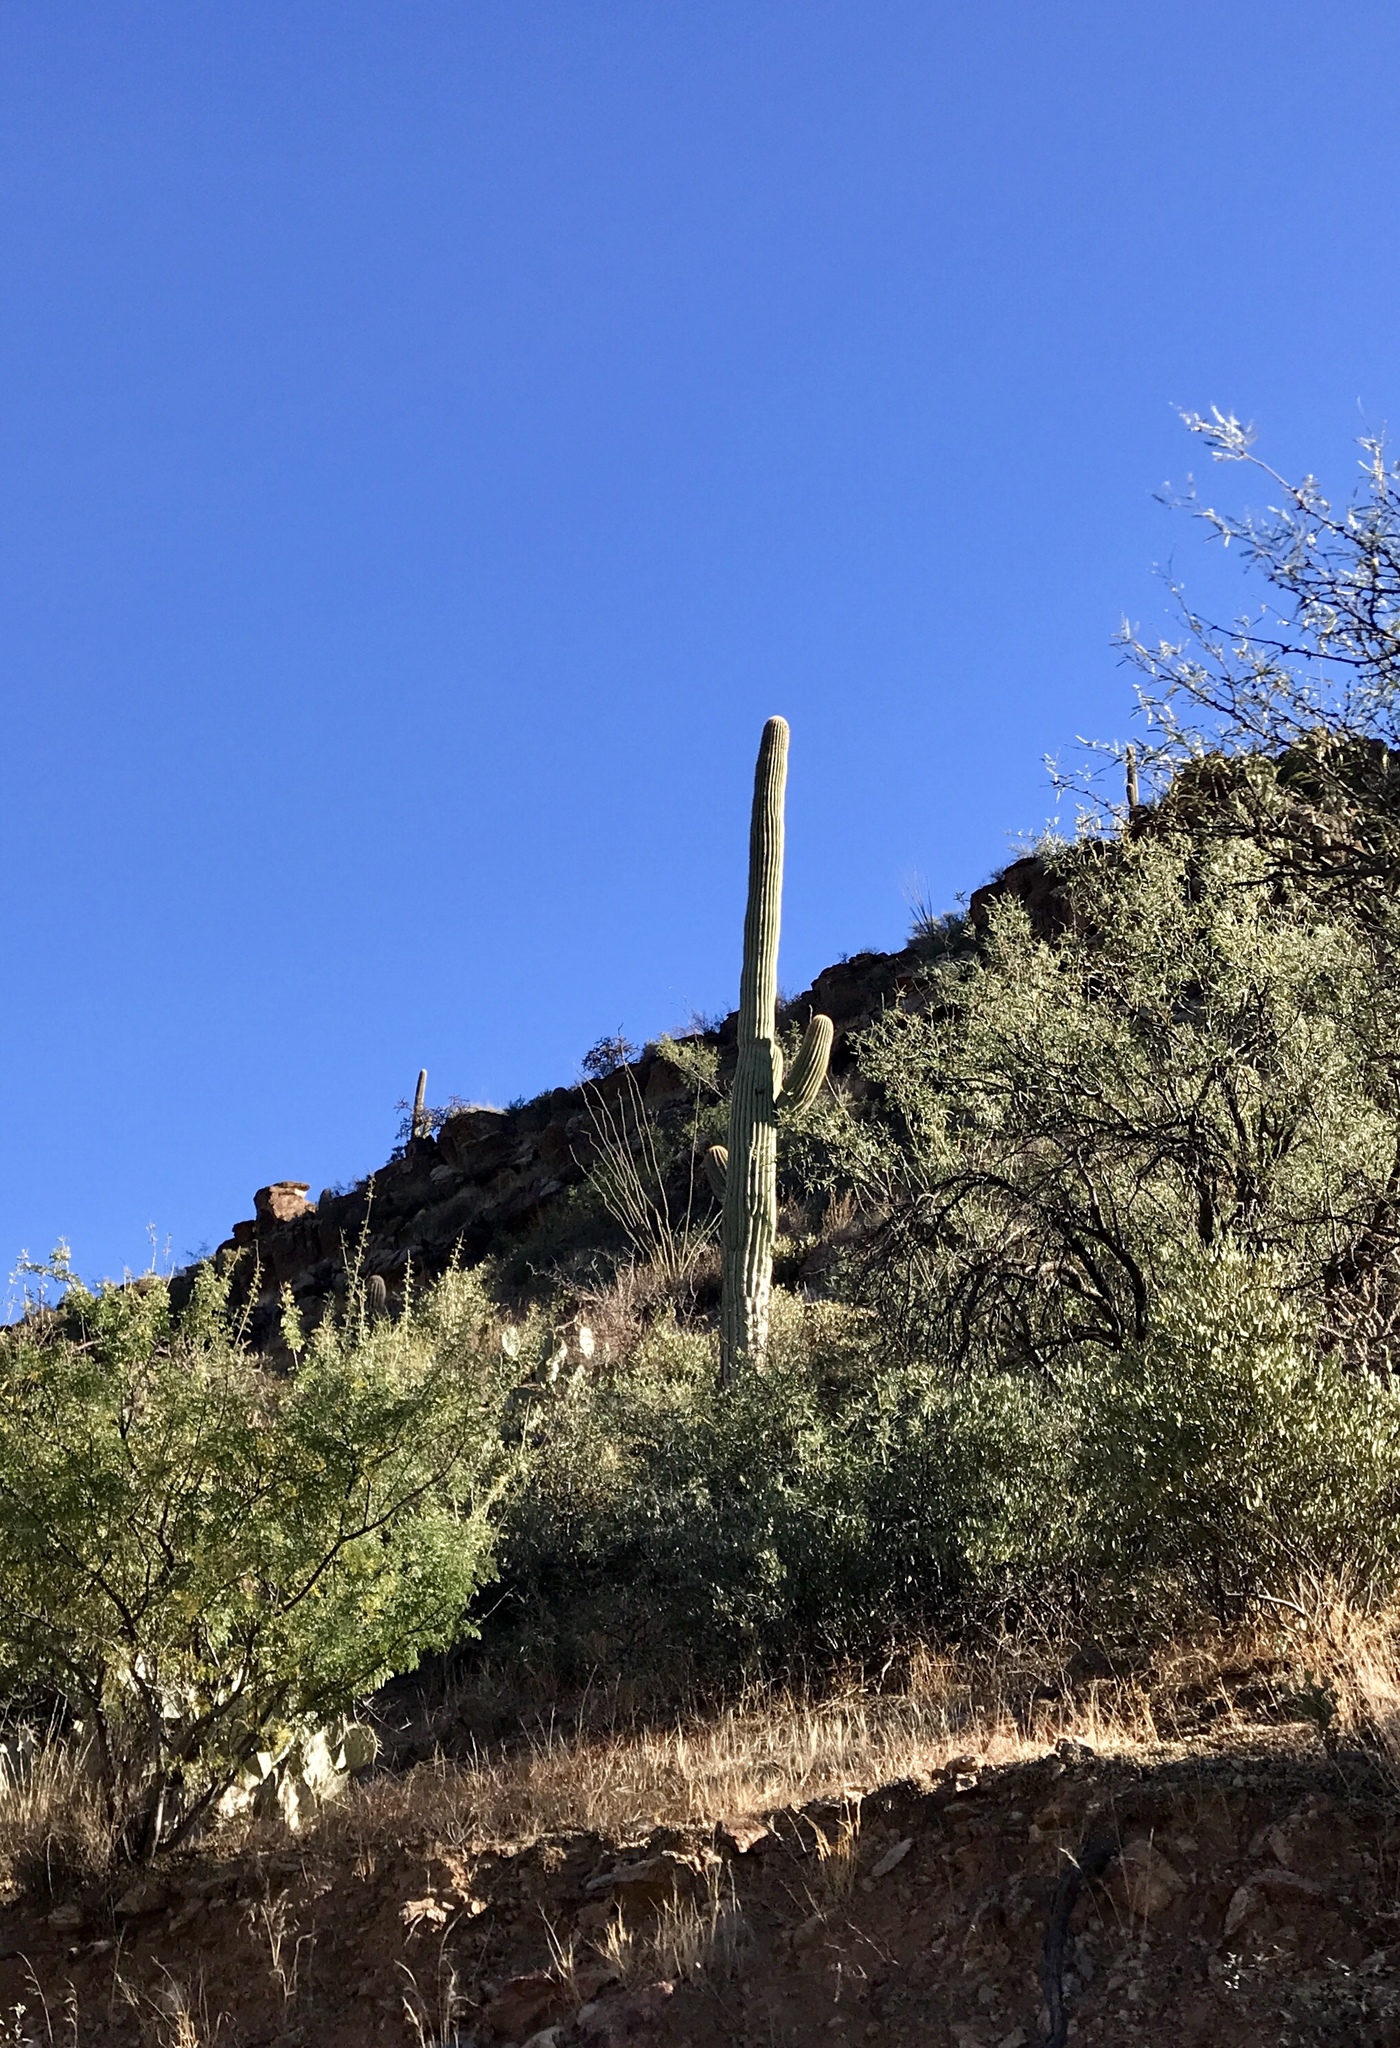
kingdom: Plantae
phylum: Tracheophyta
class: Magnoliopsida
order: Caryophyllales
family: Cactaceae
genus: Carnegiea
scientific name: Carnegiea gigantea
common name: Saguaro
